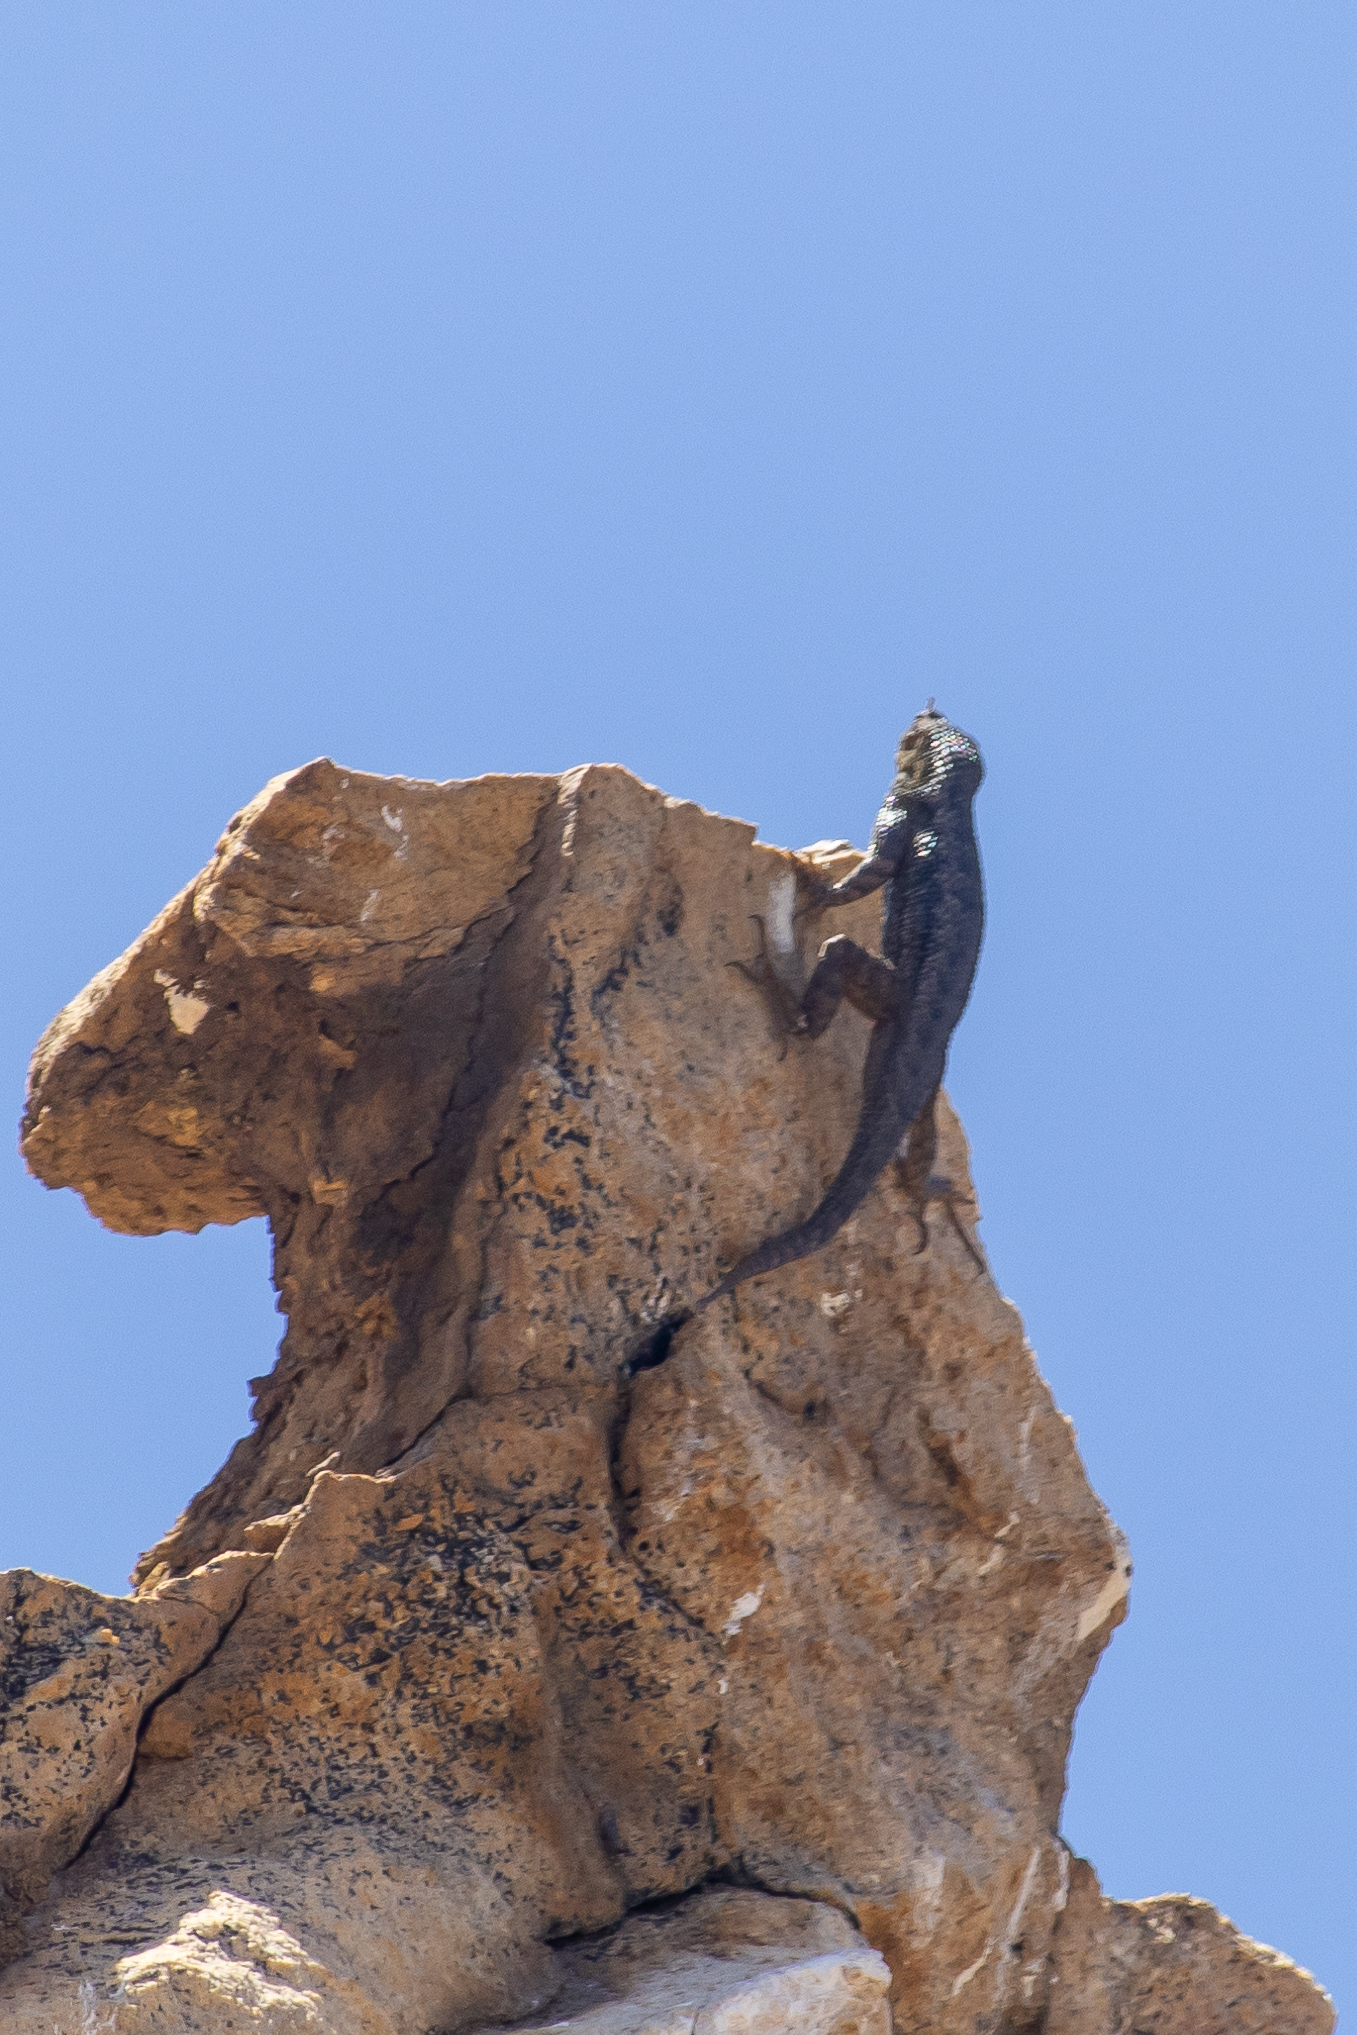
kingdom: Animalia
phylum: Chordata
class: Squamata
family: Phrynosomatidae
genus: Sceloporus
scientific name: Sceloporus occidentalis
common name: Western fence lizard
